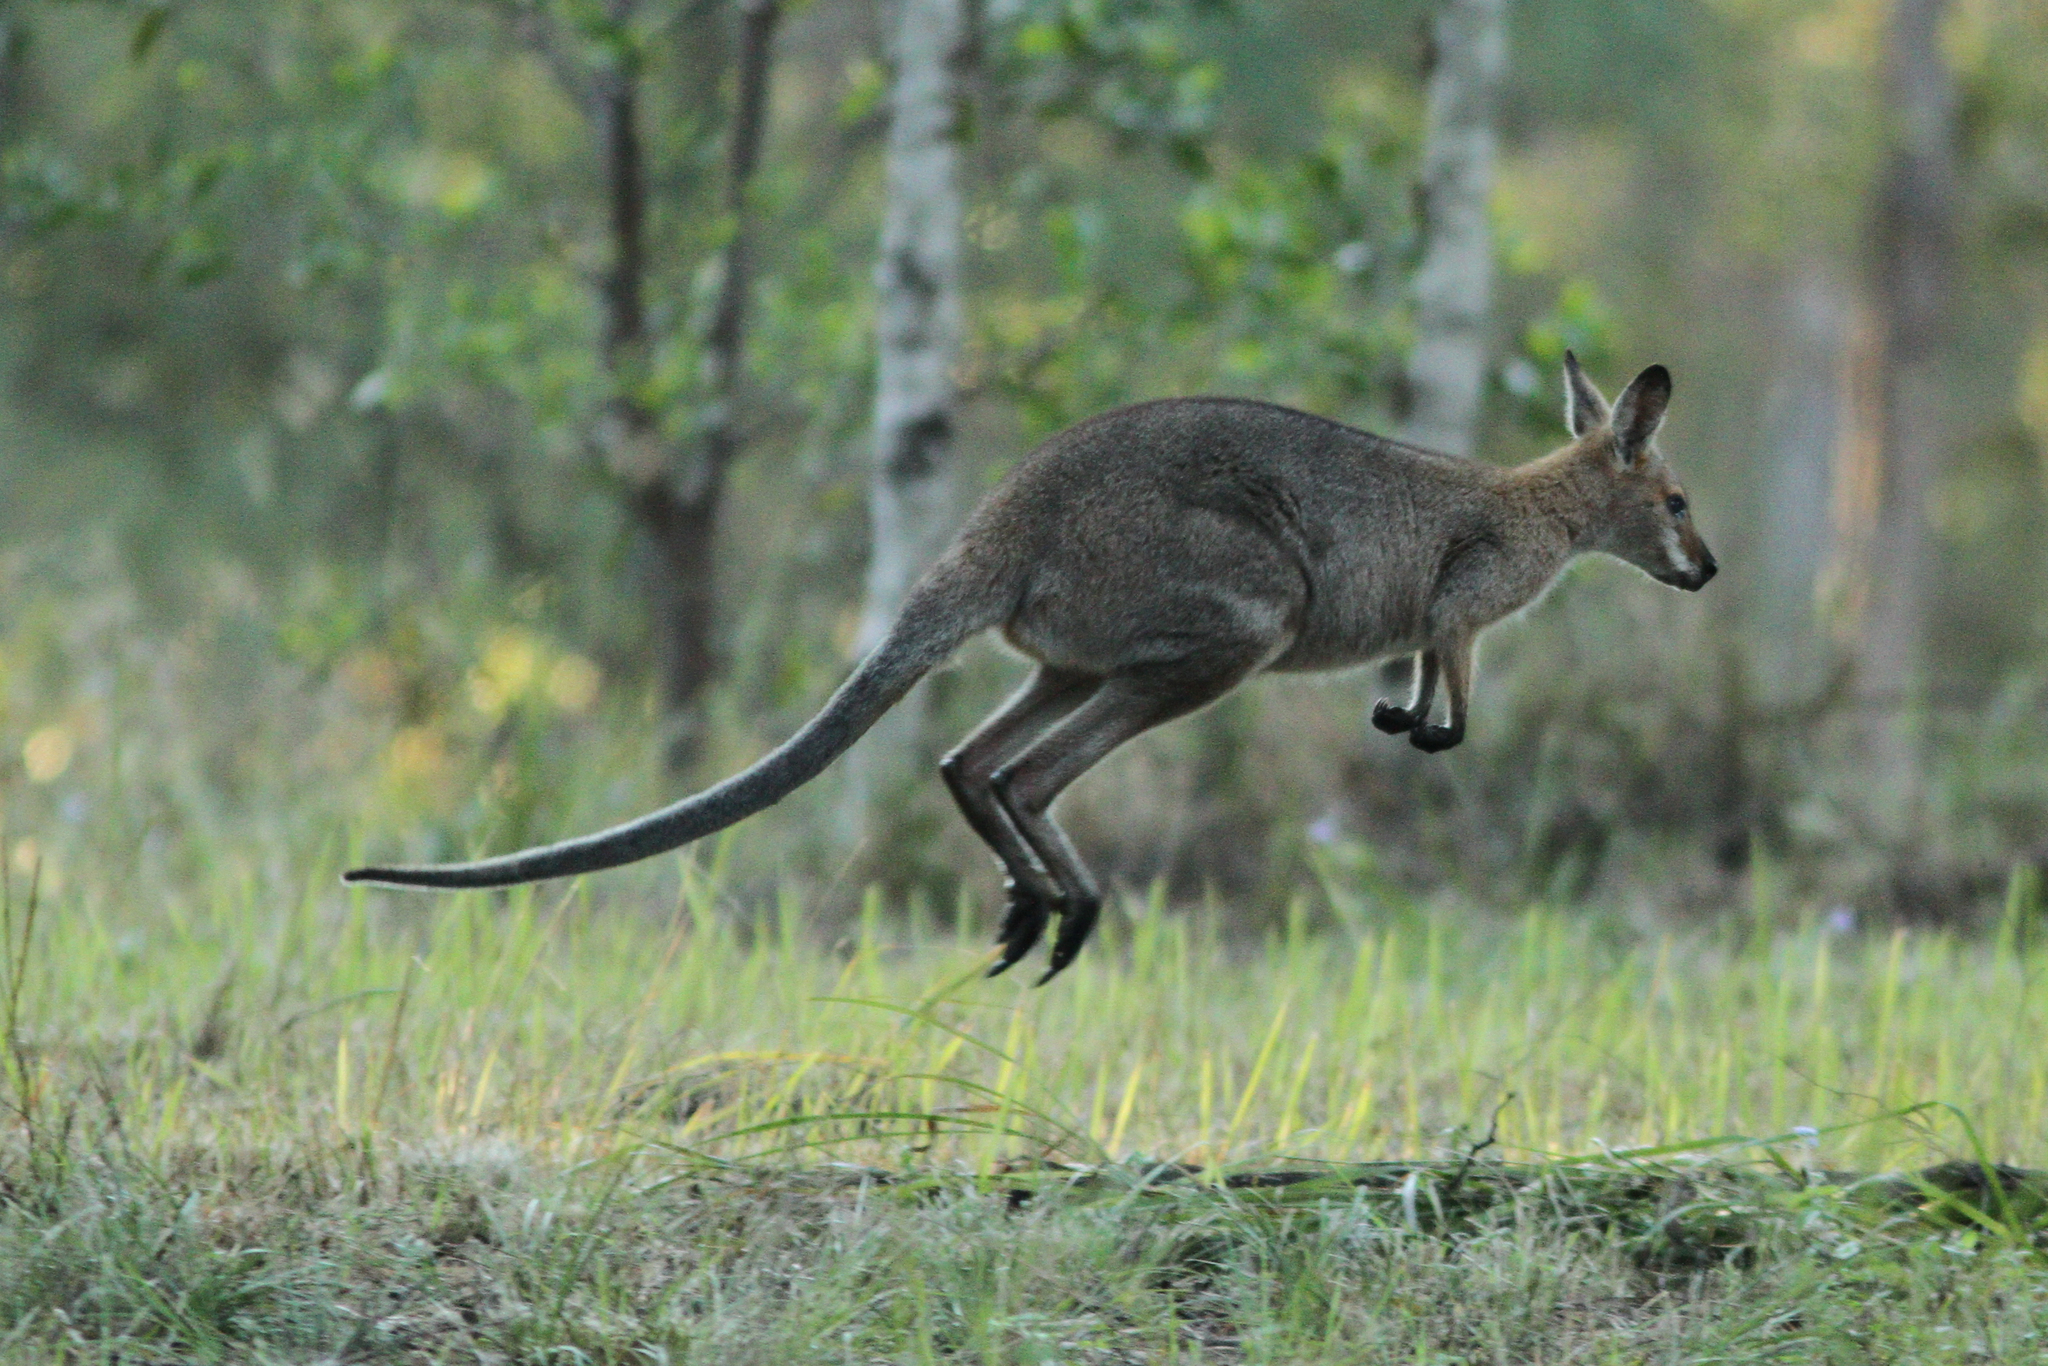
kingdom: Animalia
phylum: Chordata
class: Mammalia
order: Diprotodontia
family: Macropodidae
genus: Notamacropus
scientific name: Notamacropus rufogriseus
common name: Red-necked wallaby
